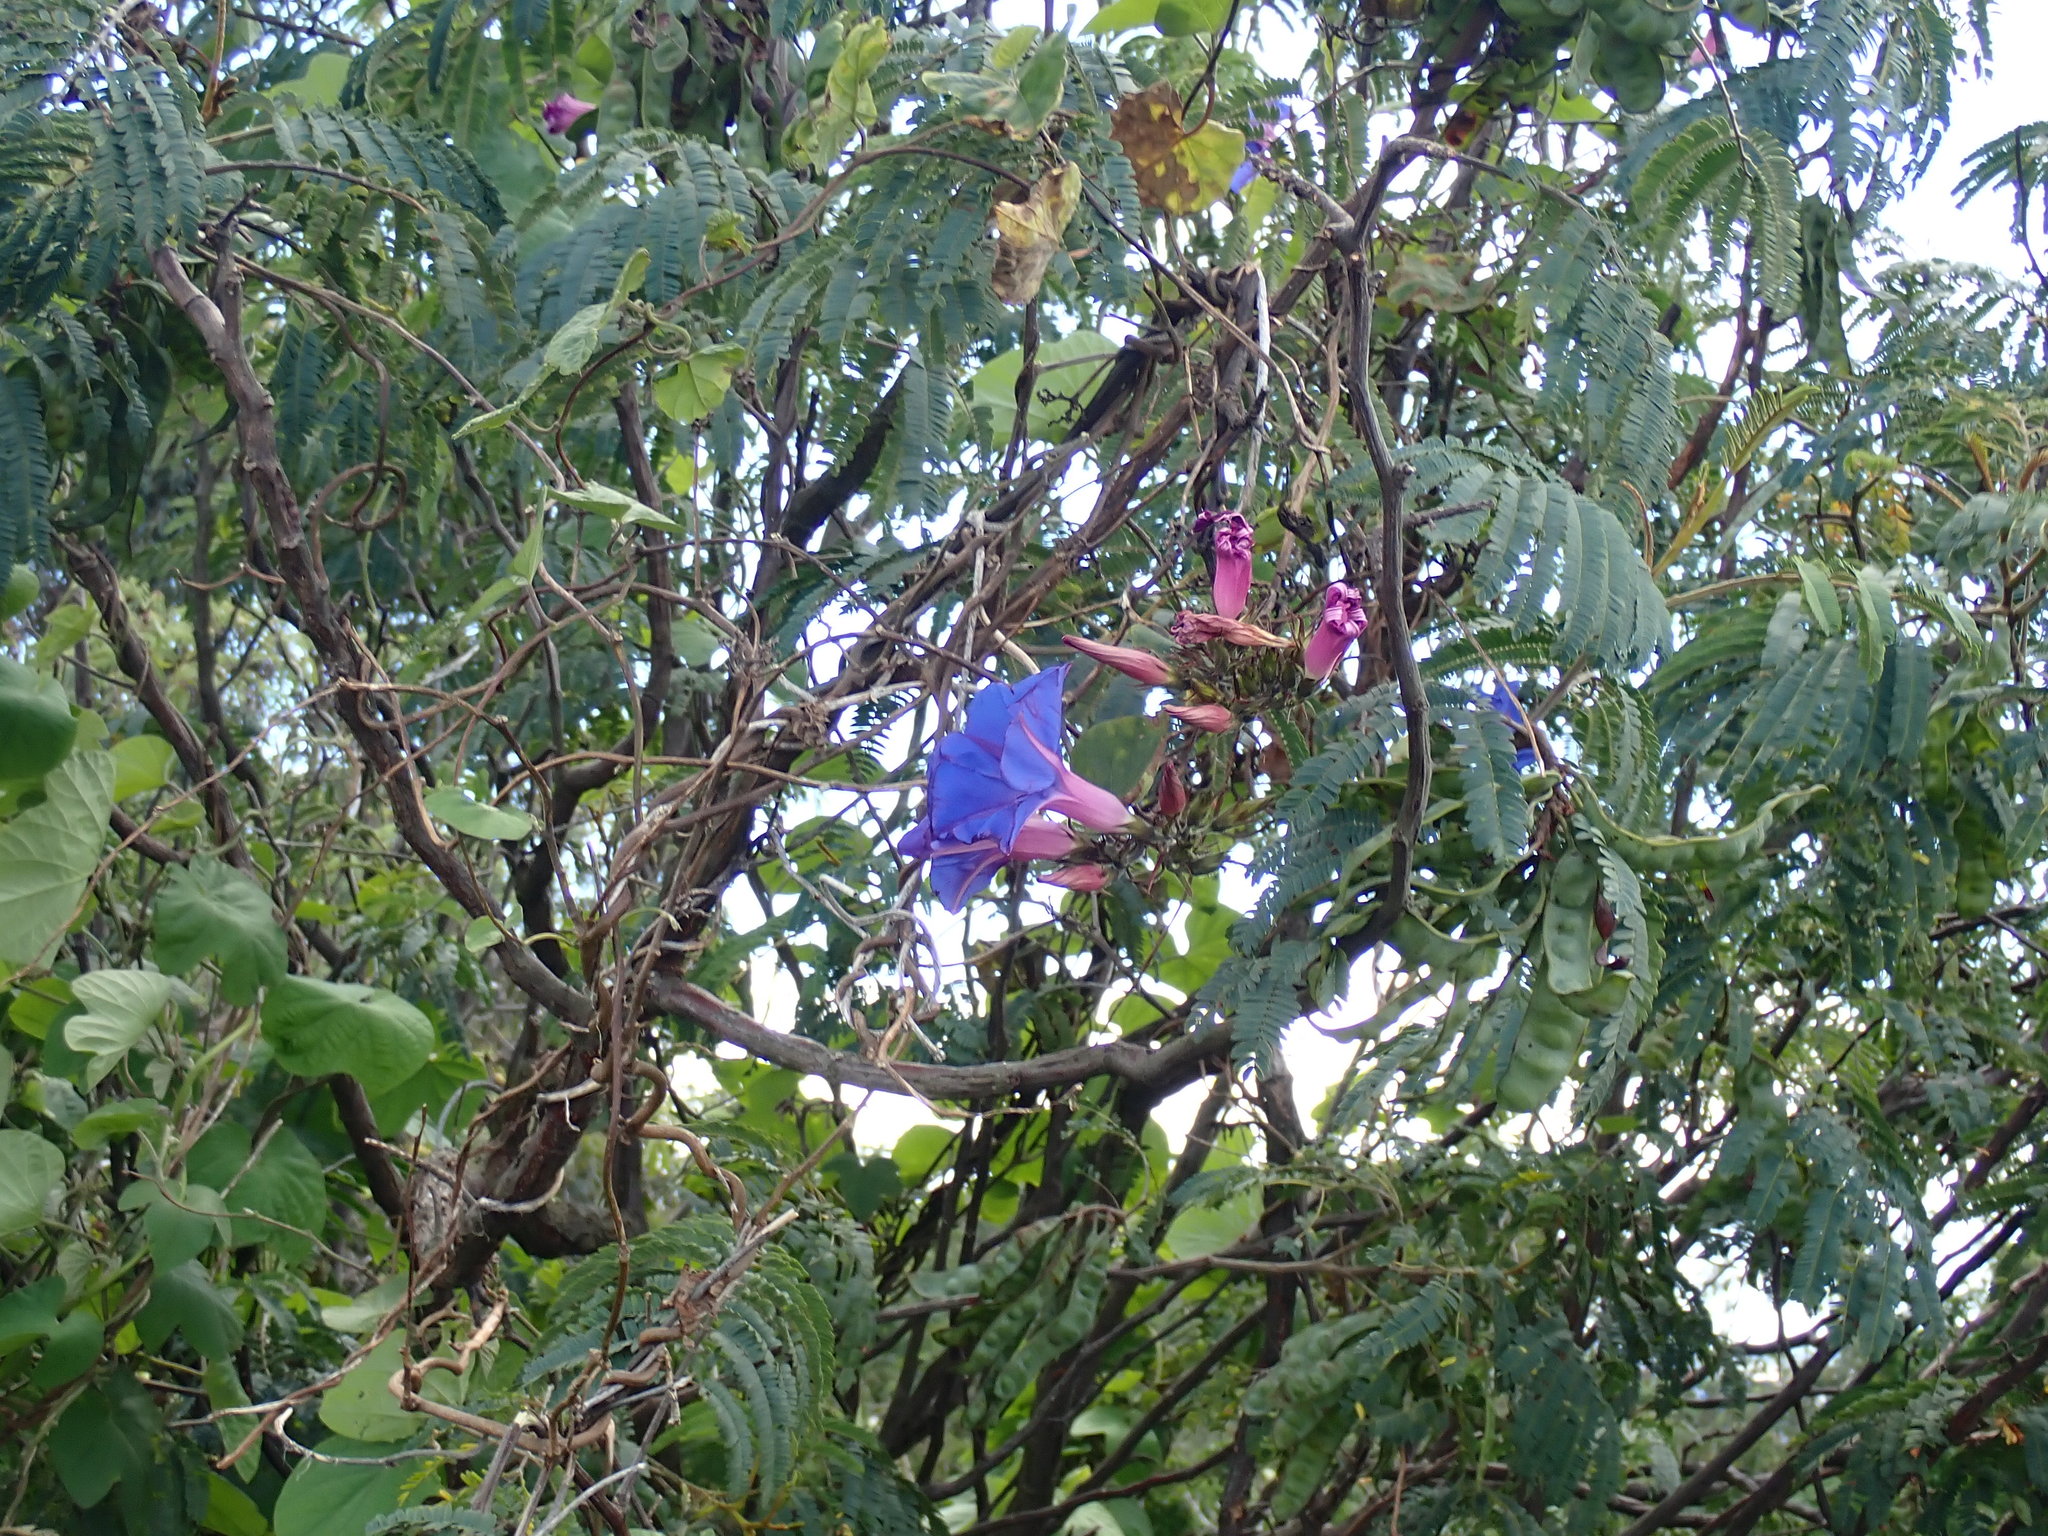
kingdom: Plantae
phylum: Tracheophyta
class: Magnoliopsida
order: Solanales
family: Convolvulaceae
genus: Ipomoea
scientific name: Ipomoea indica
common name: Blue dawnflower
